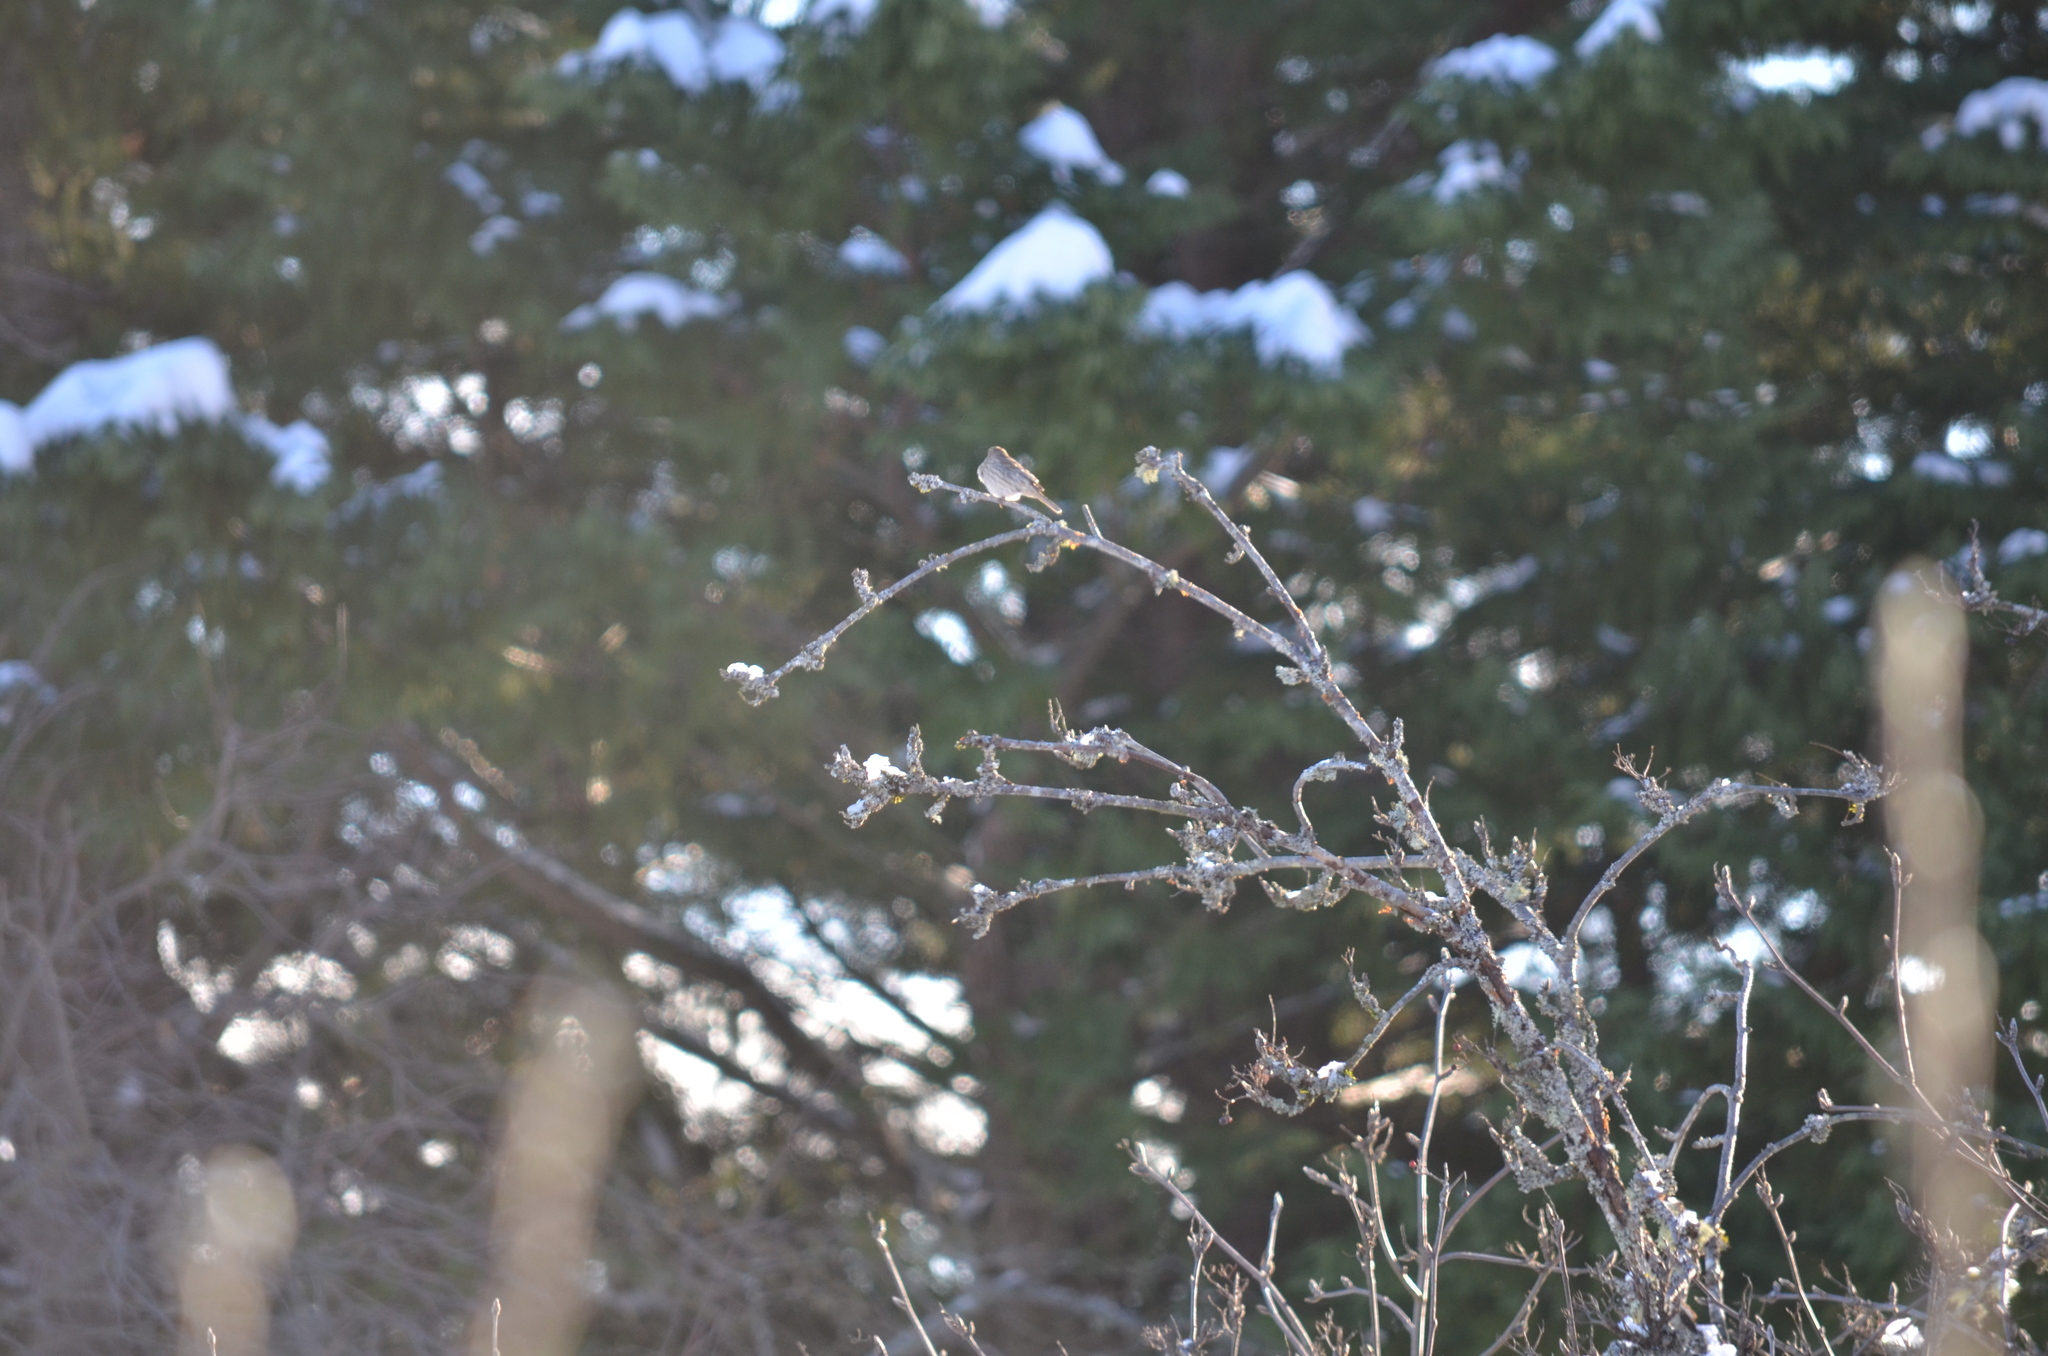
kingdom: Animalia
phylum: Chordata
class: Aves
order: Passeriformes
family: Fringillidae
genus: Haemorhous
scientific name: Haemorhous mexicanus
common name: House finch
